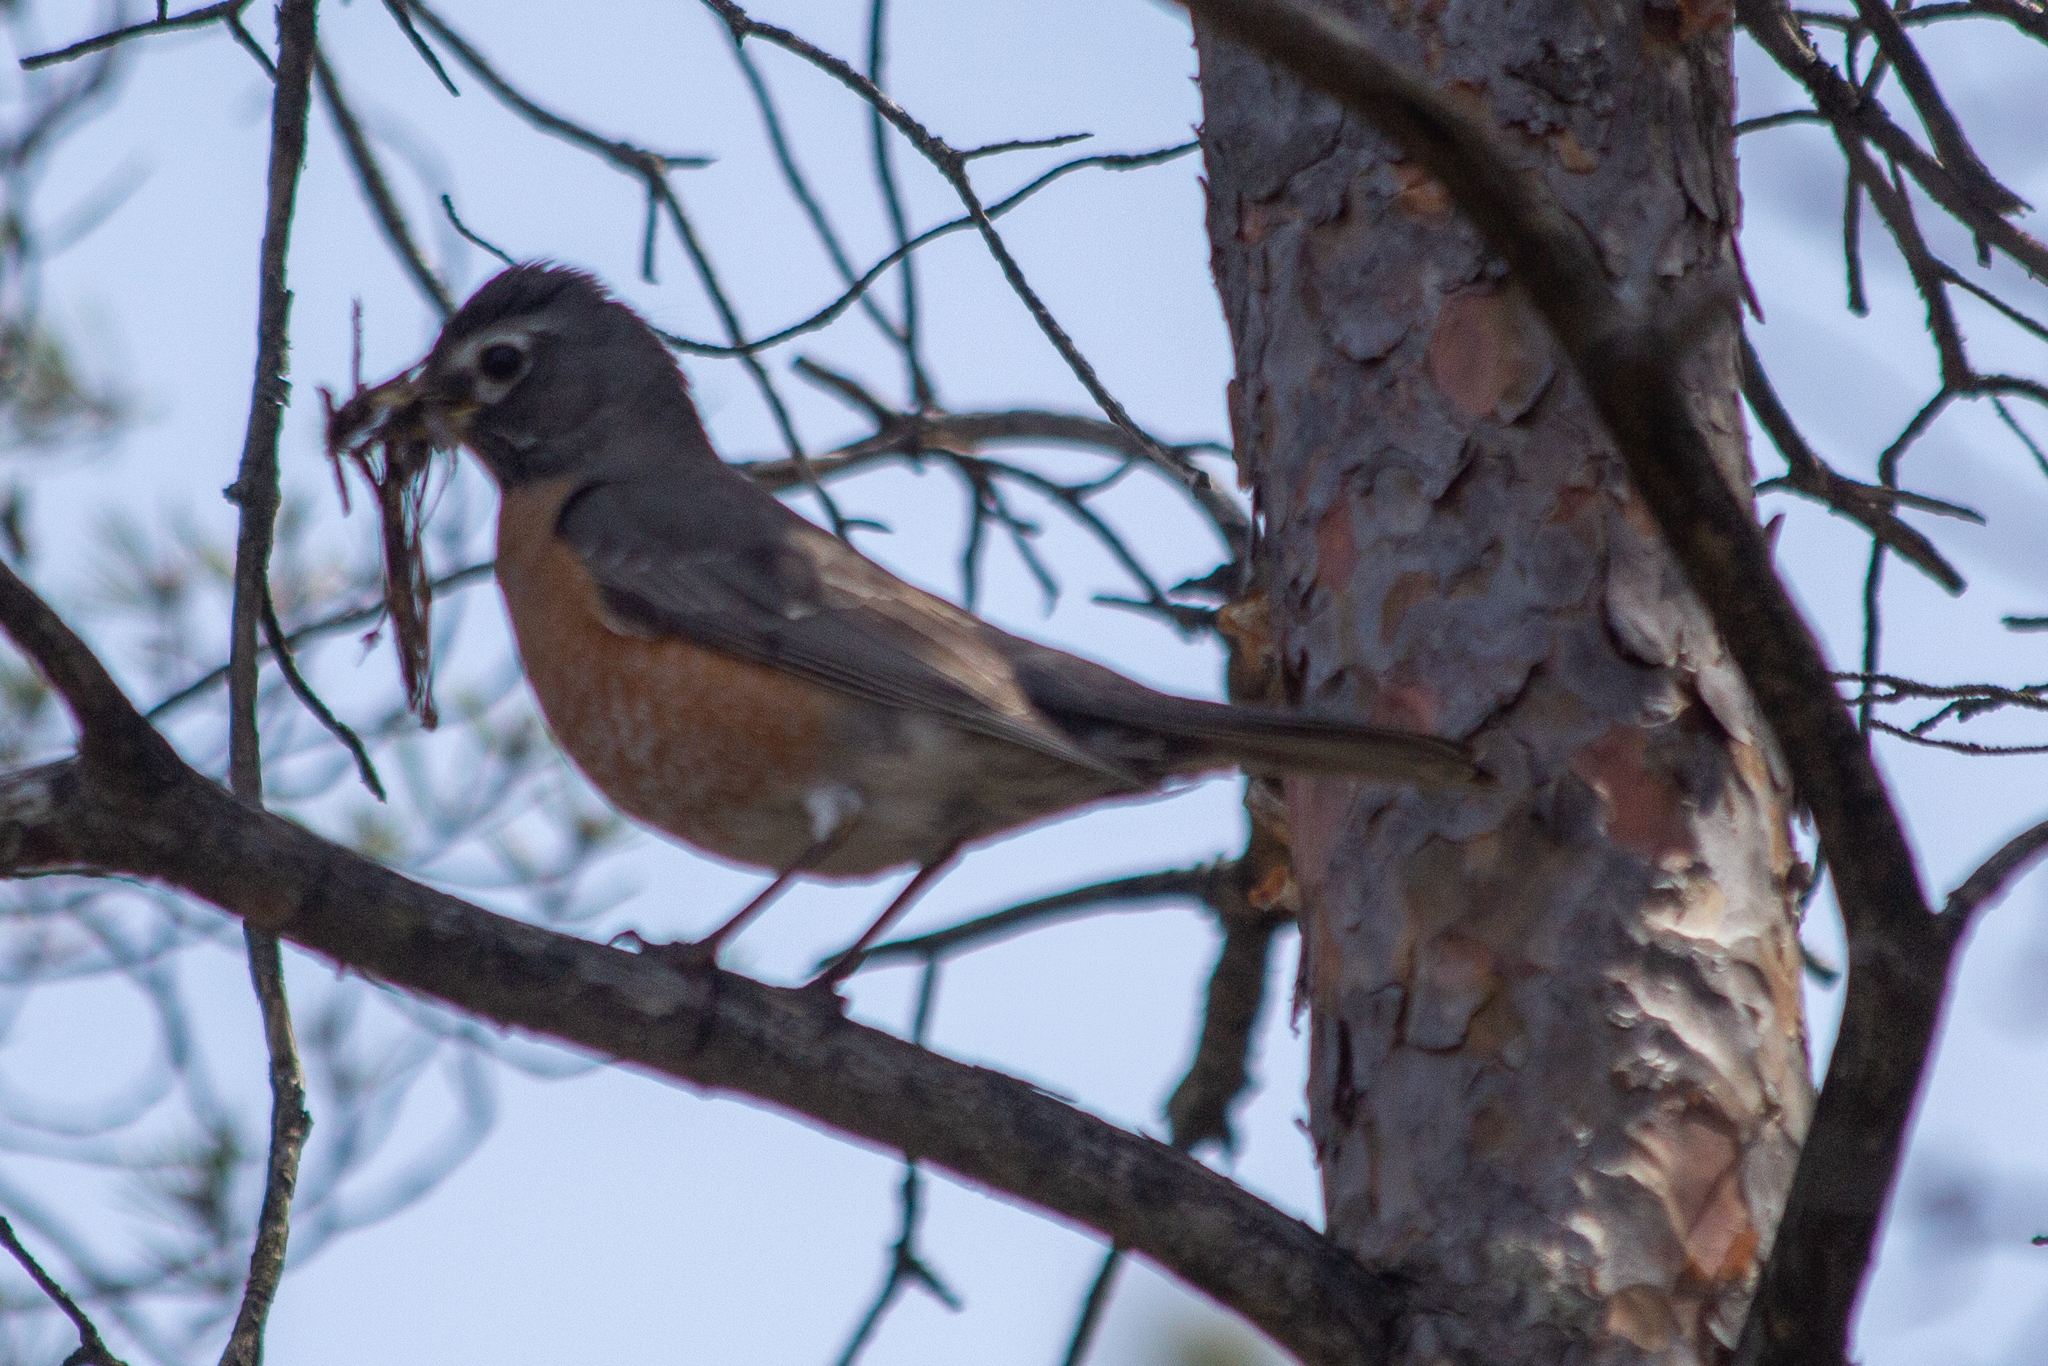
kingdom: Animalia
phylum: Chordata
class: Aves
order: Passeriformes
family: Turdidae
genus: Turdus
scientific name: Turdus migratorius
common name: American robin
